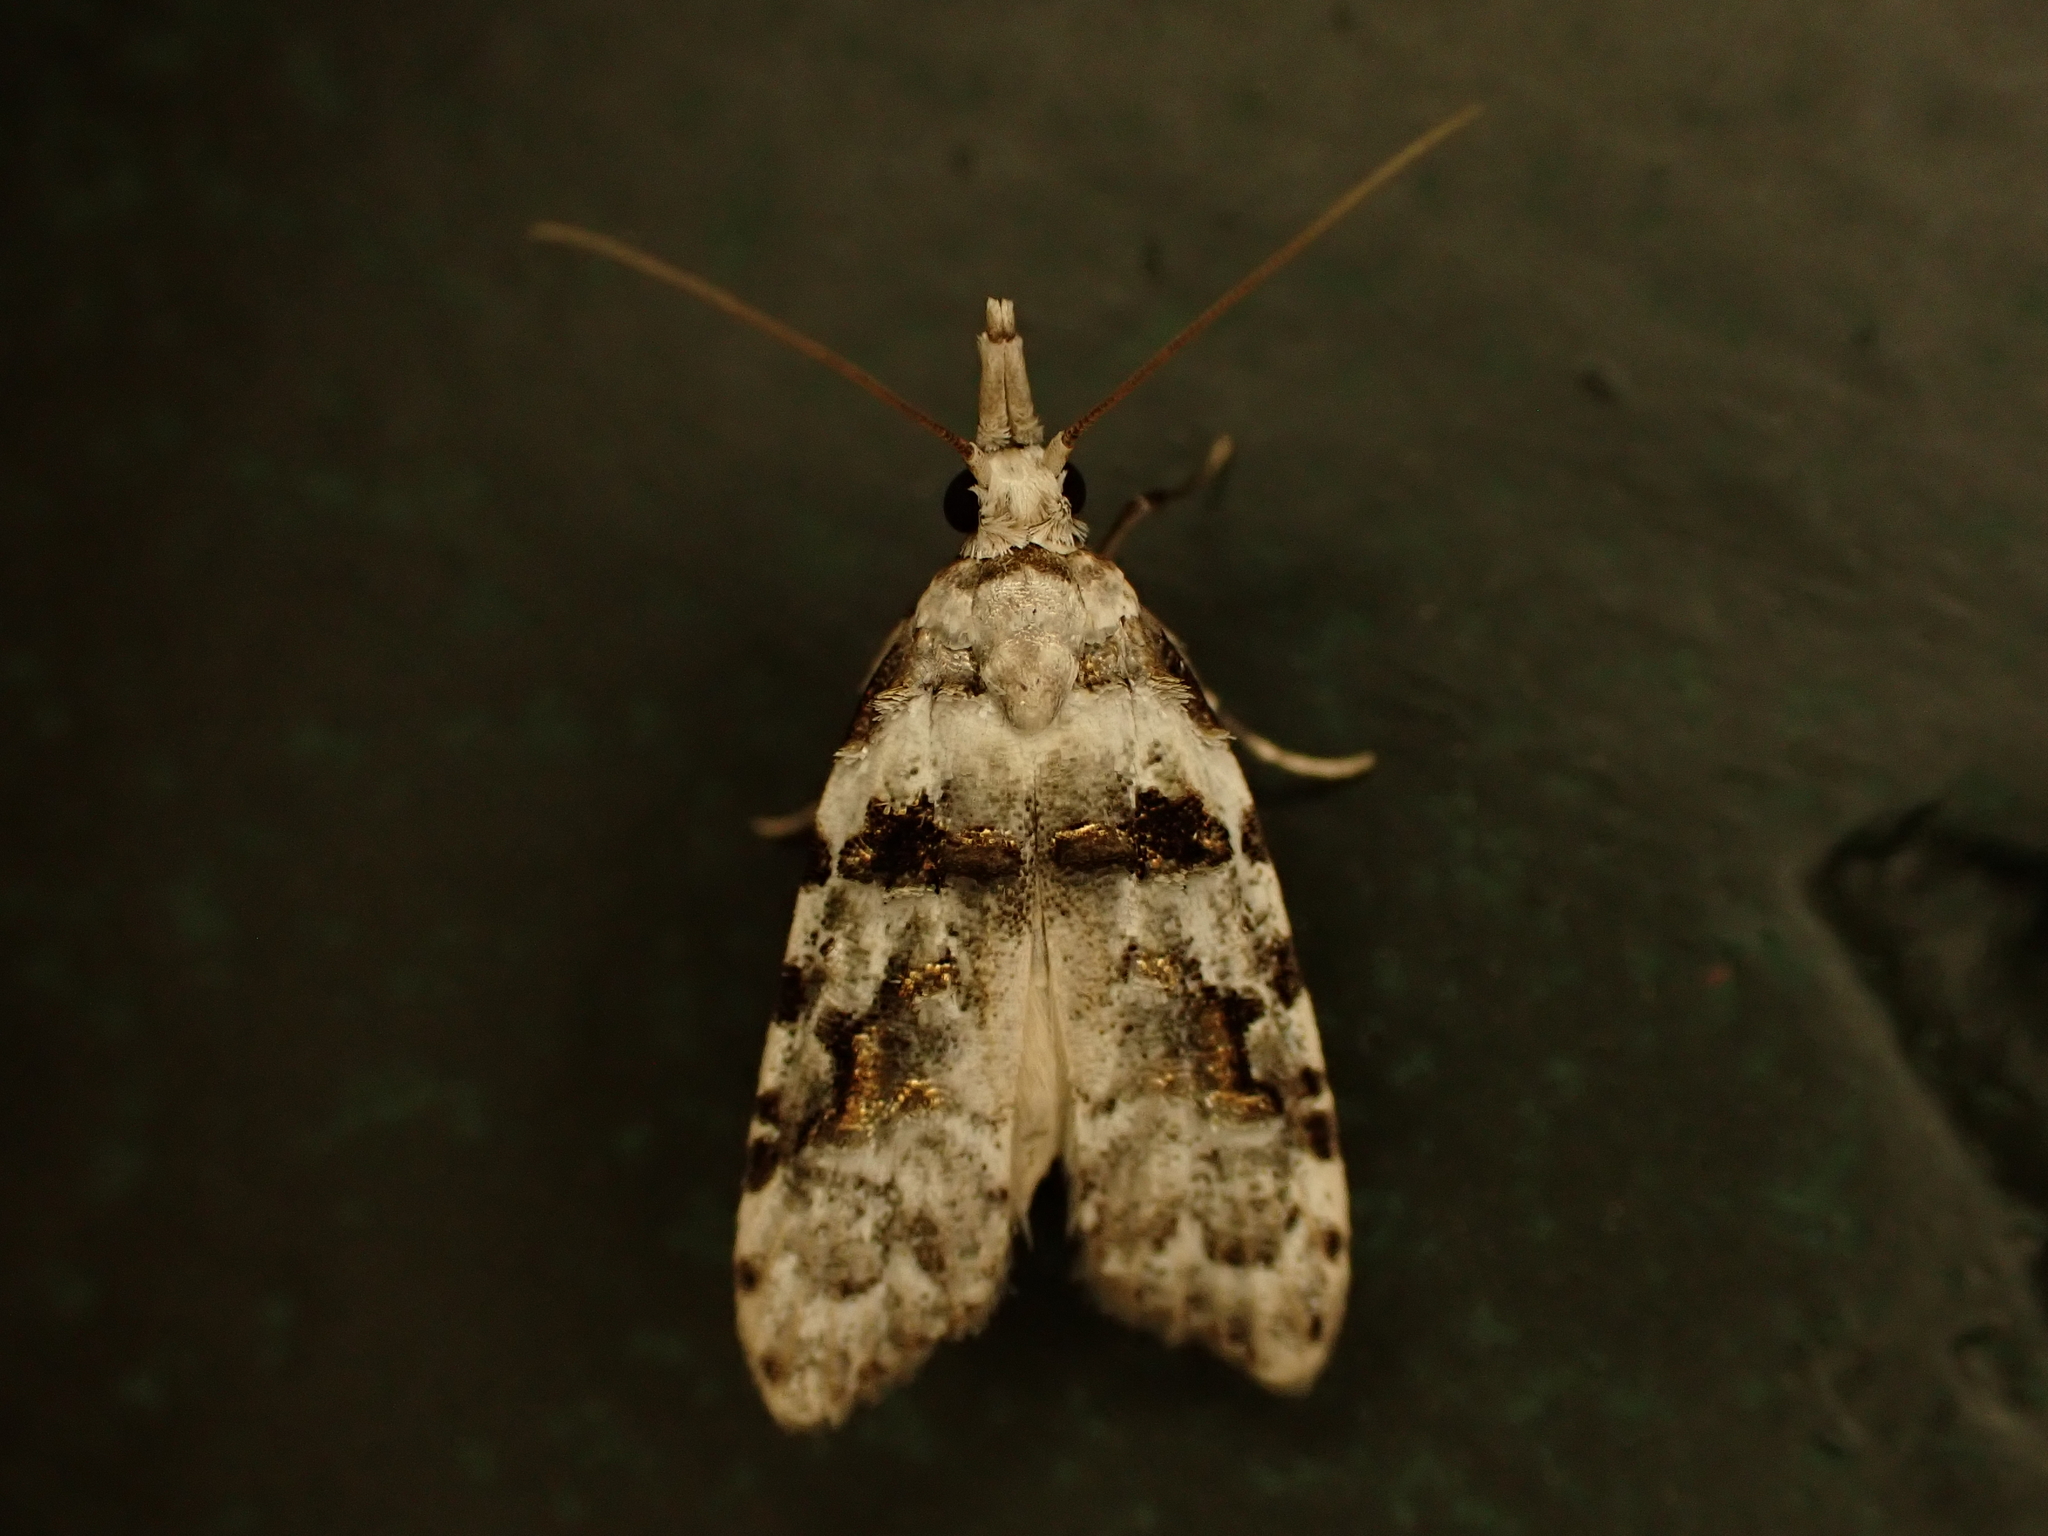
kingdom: Animalia
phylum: Arthropoda
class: Insecta
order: Lepidoptera
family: Carposinidae
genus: Coscinoptycha
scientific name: Coscinoptycha improbana
